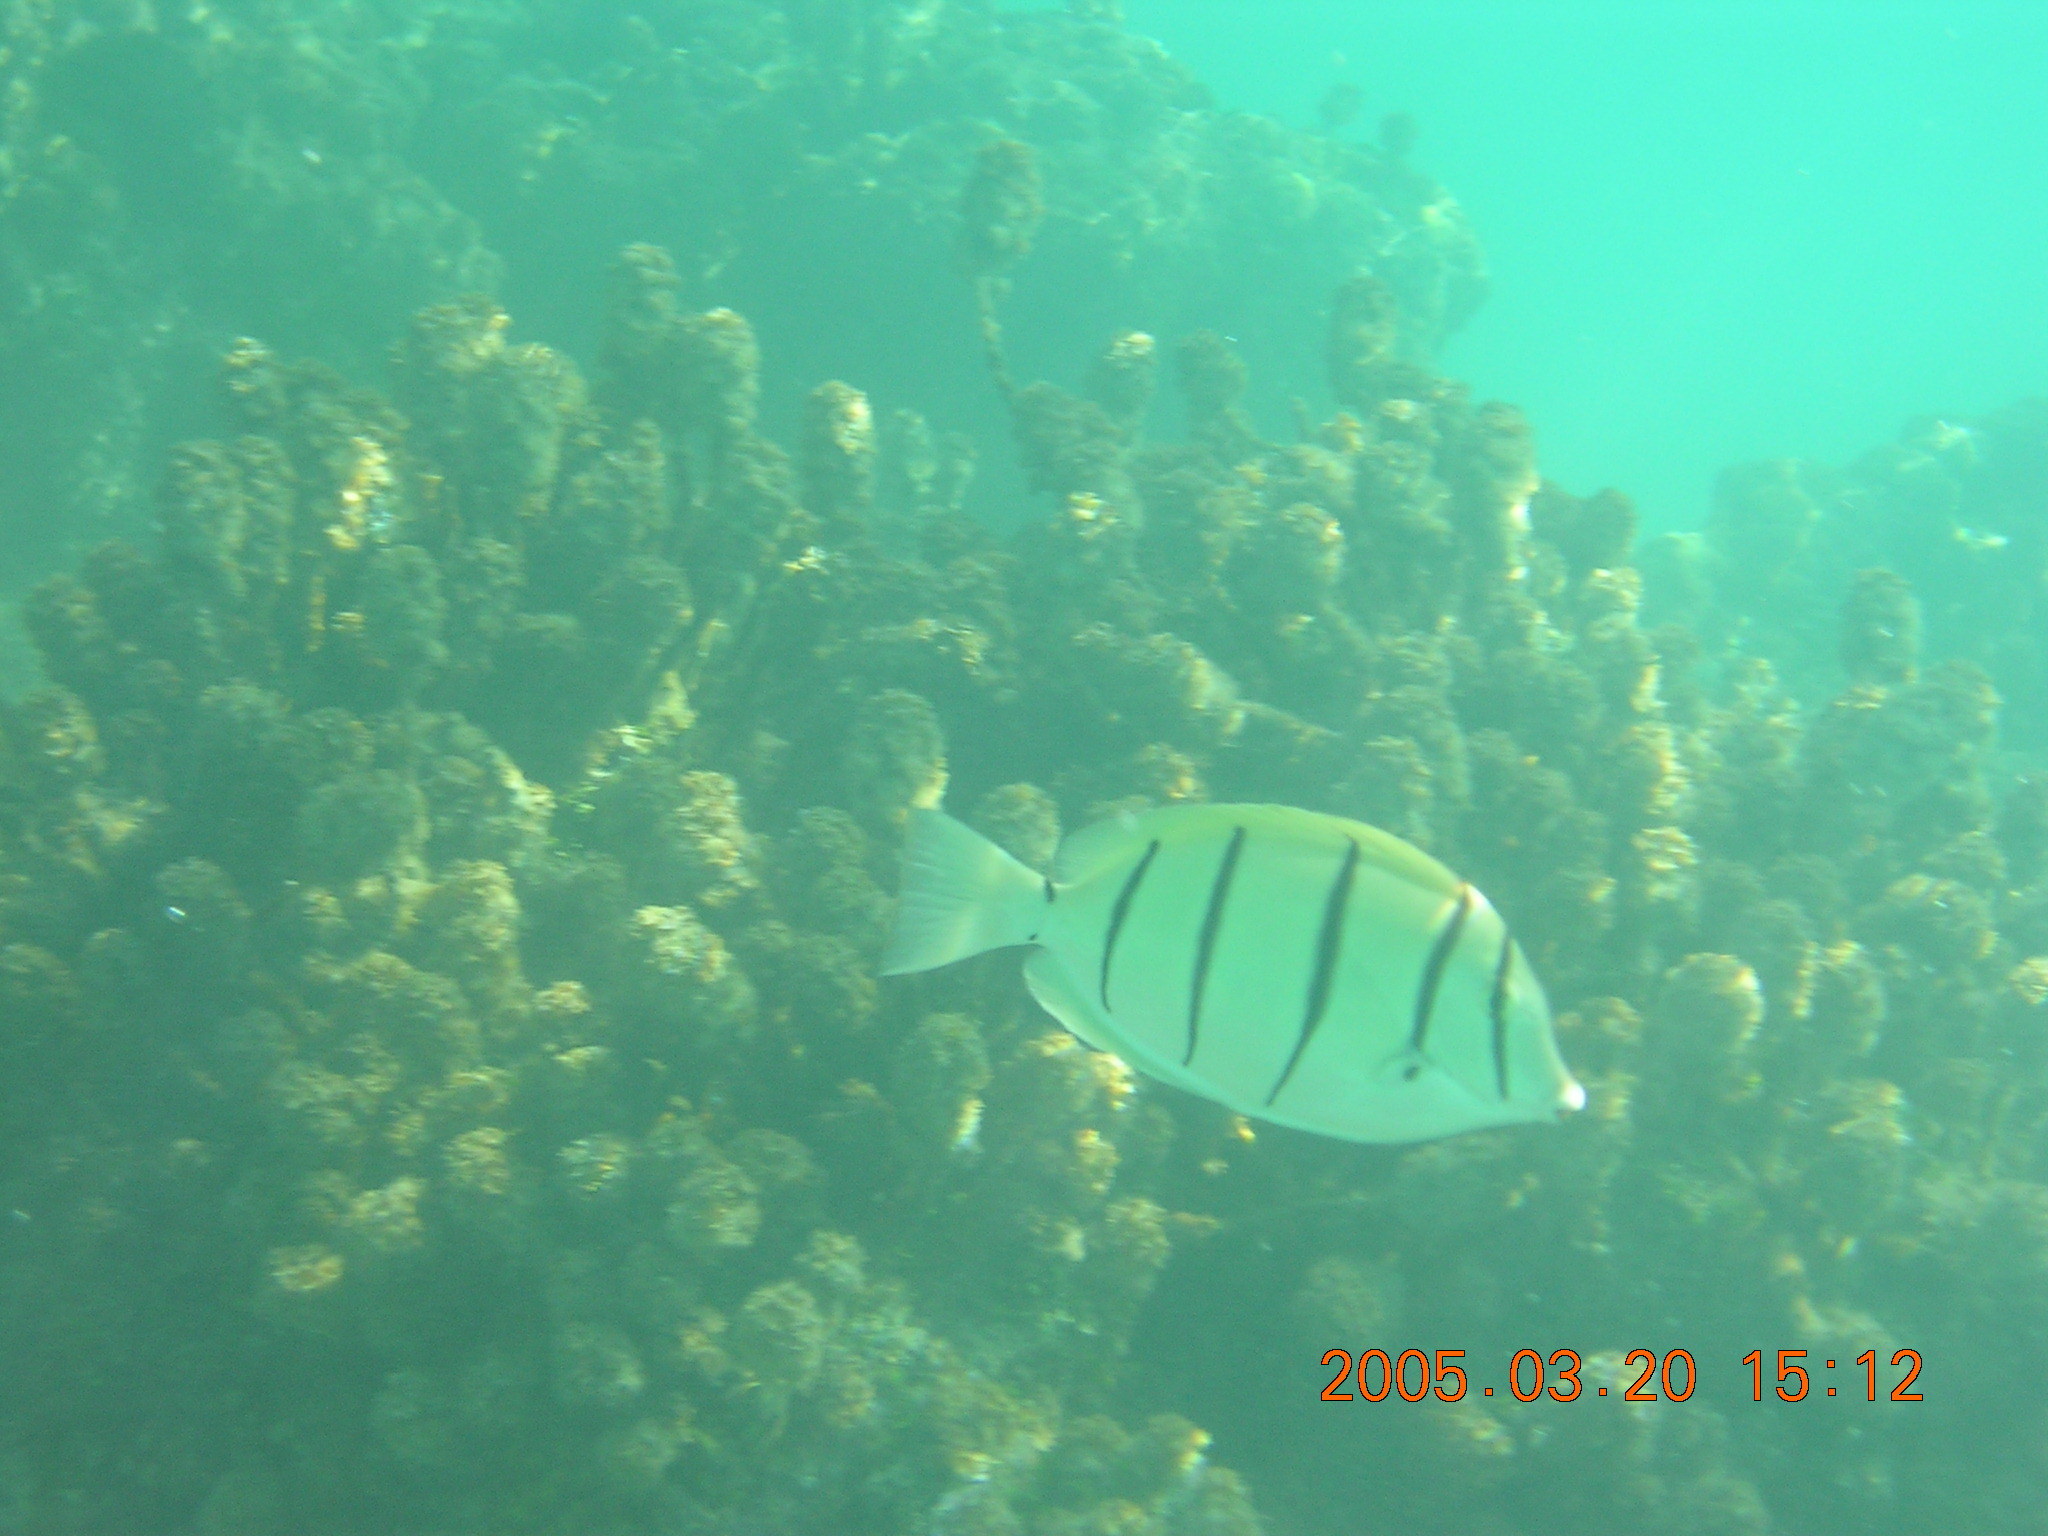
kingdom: Animalia
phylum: Chordata
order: Perciformes
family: Acanthuridae
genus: Acanthurus
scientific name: Acanthurus triostegus
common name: Convict surgeonfish
